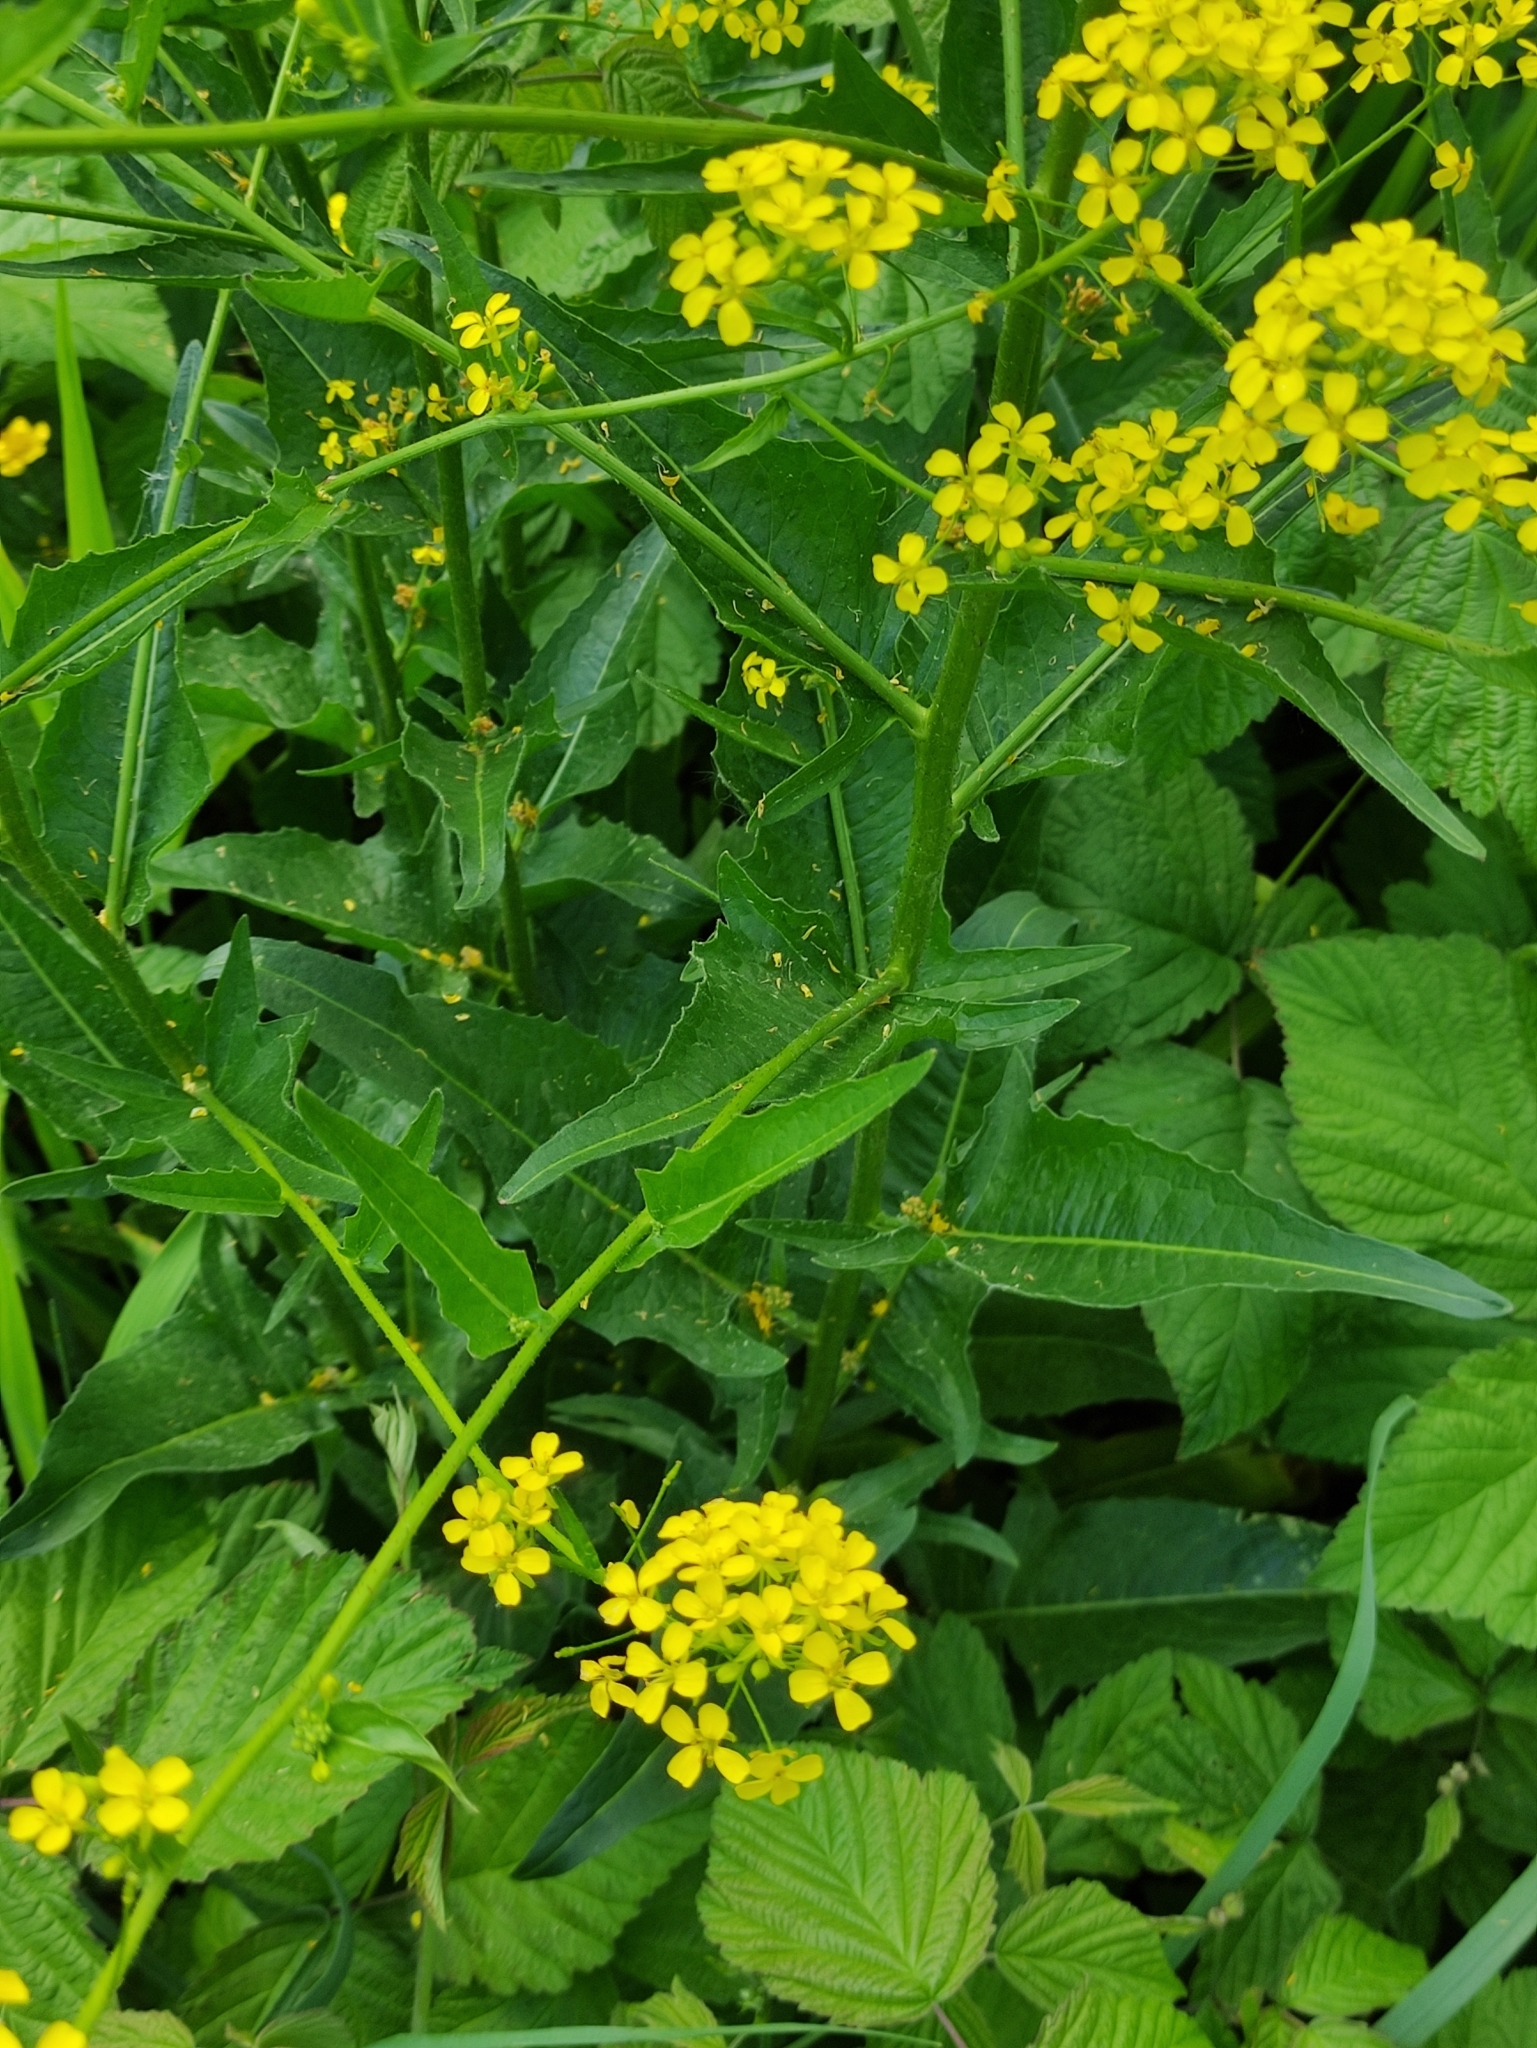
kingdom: Plantae
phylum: Tracheophyta
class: Magnoliopsida
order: Brassicales
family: Brassicaceae
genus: Bunias
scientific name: Bunias orientalis
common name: Warty-cabbage
